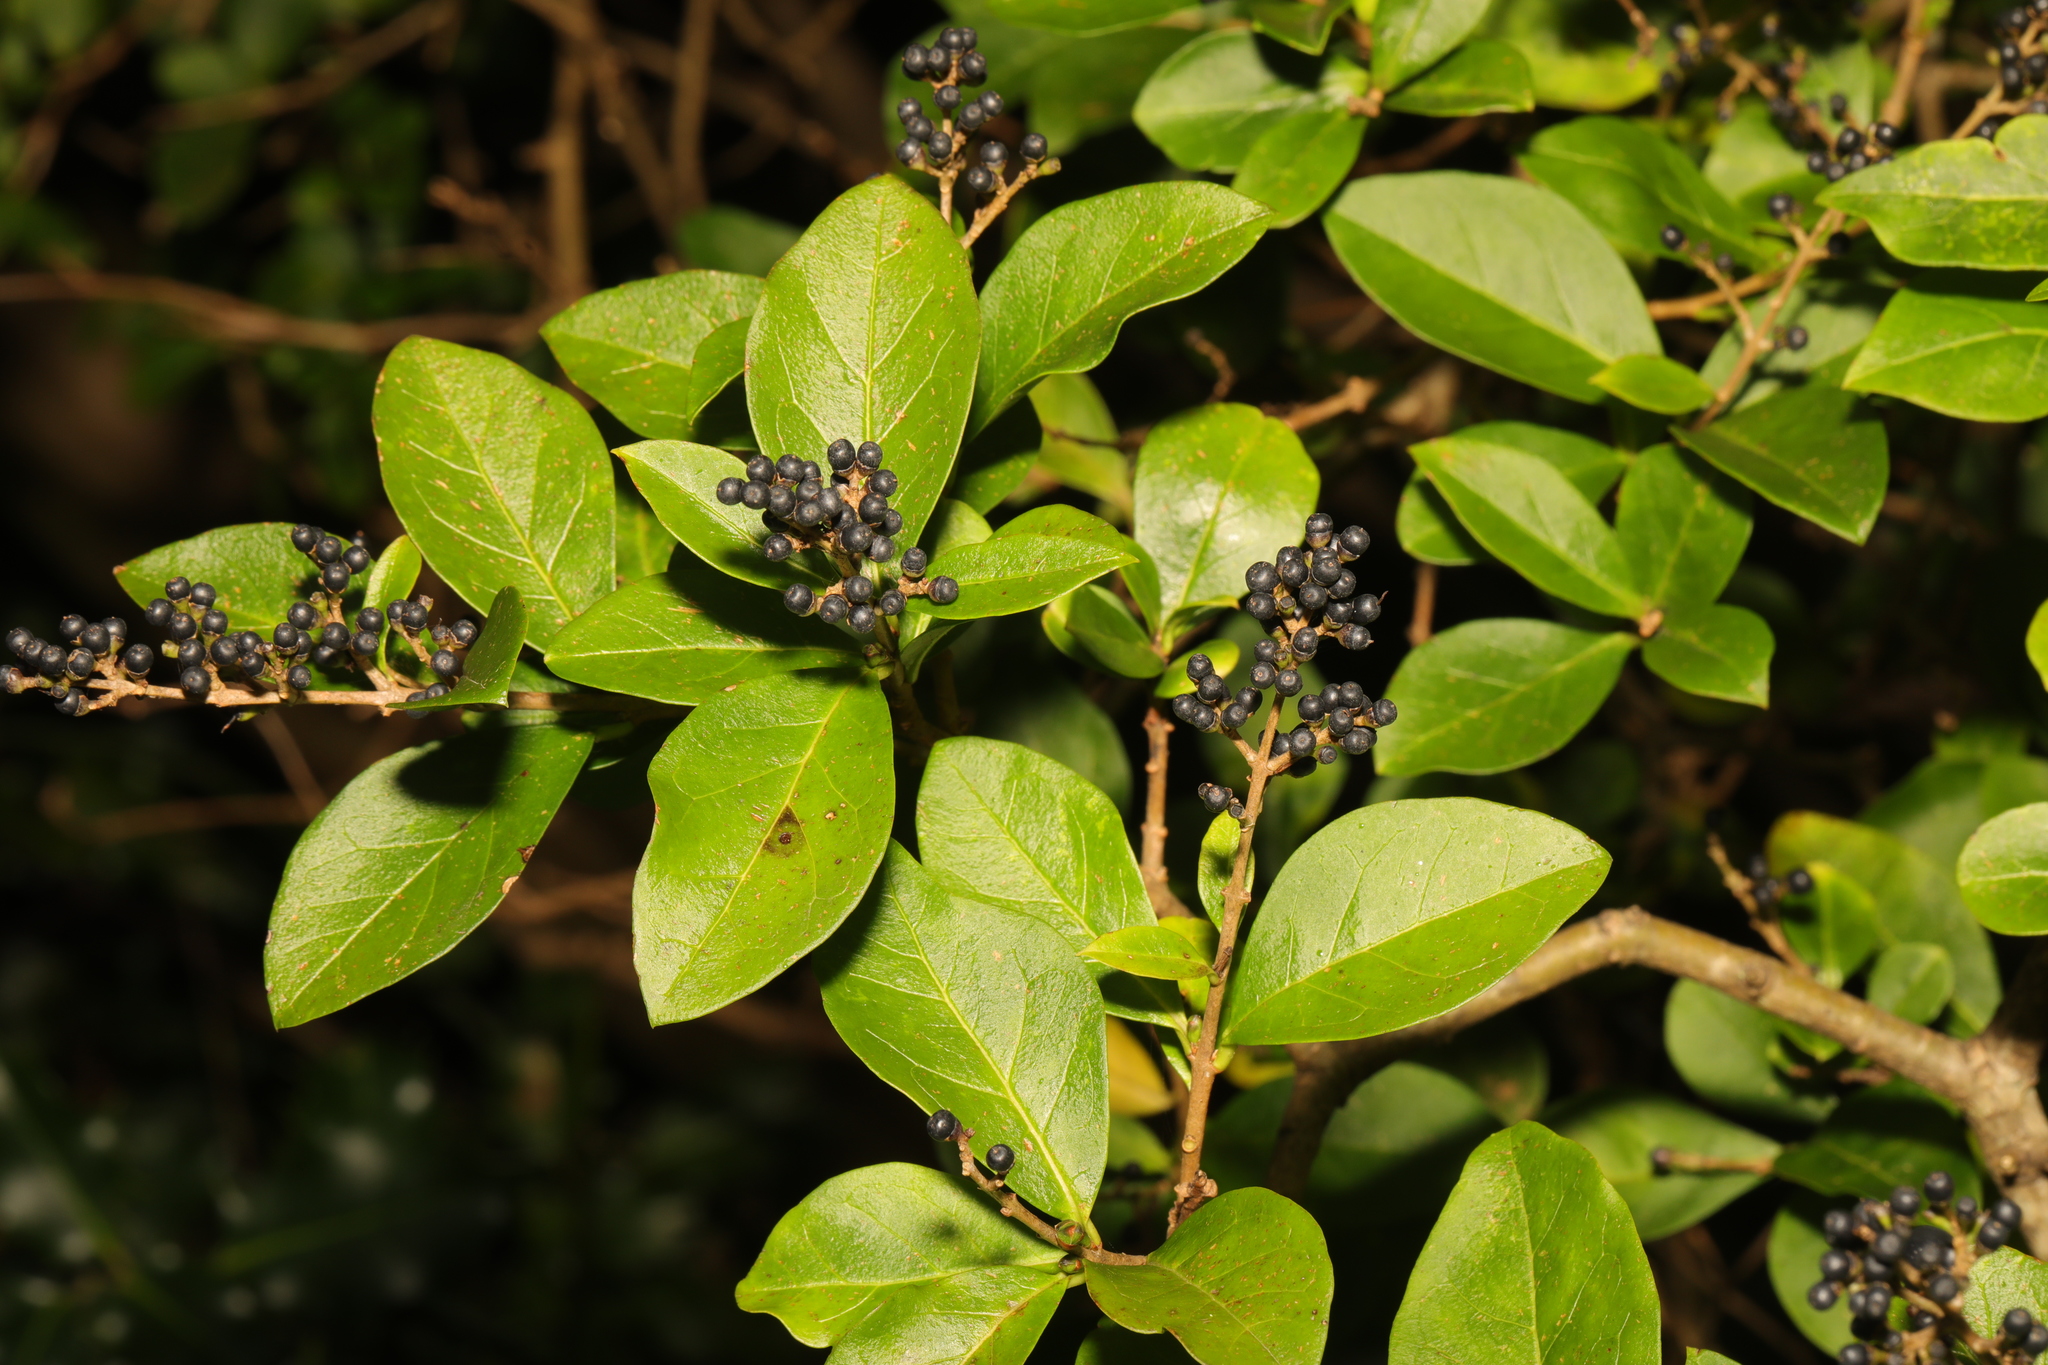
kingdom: Plantae
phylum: Tracheophyta
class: Magnoliopsida
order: Lamiales
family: Oleaceae
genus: Ligustrum
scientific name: Ligustrum ovalifolium
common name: California privet
